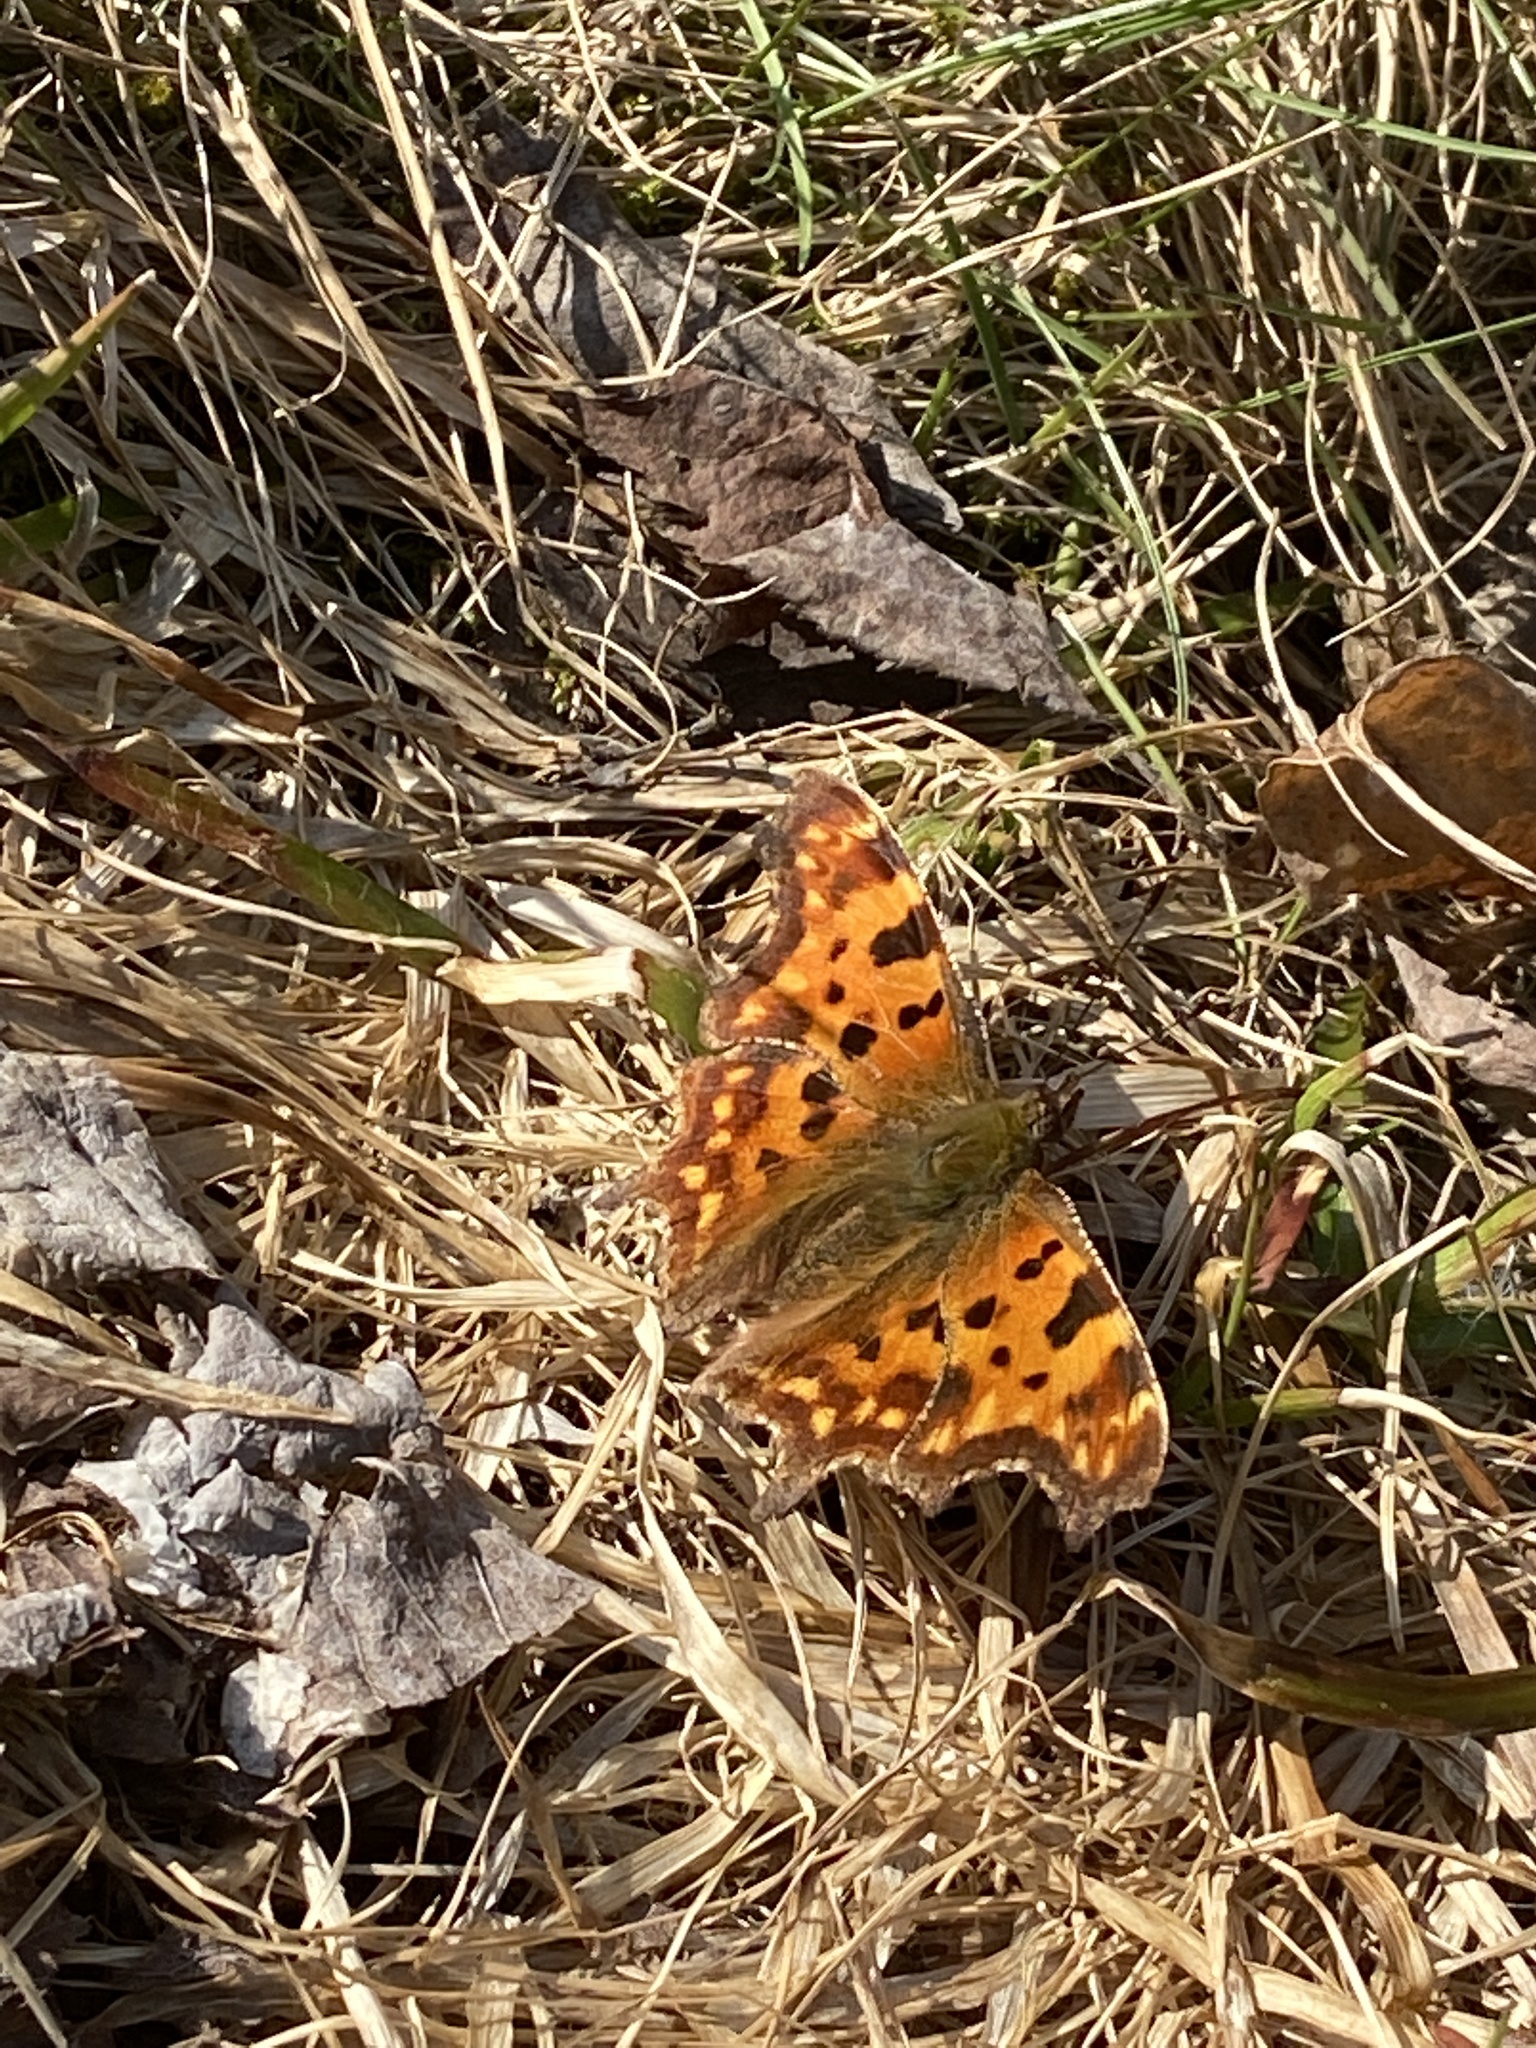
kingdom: Animalia
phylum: Arthropoda
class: Insecta
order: Lepidoptera
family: Nymphalidae
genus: Polygonia
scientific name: Polygonia c-album
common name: Comma
